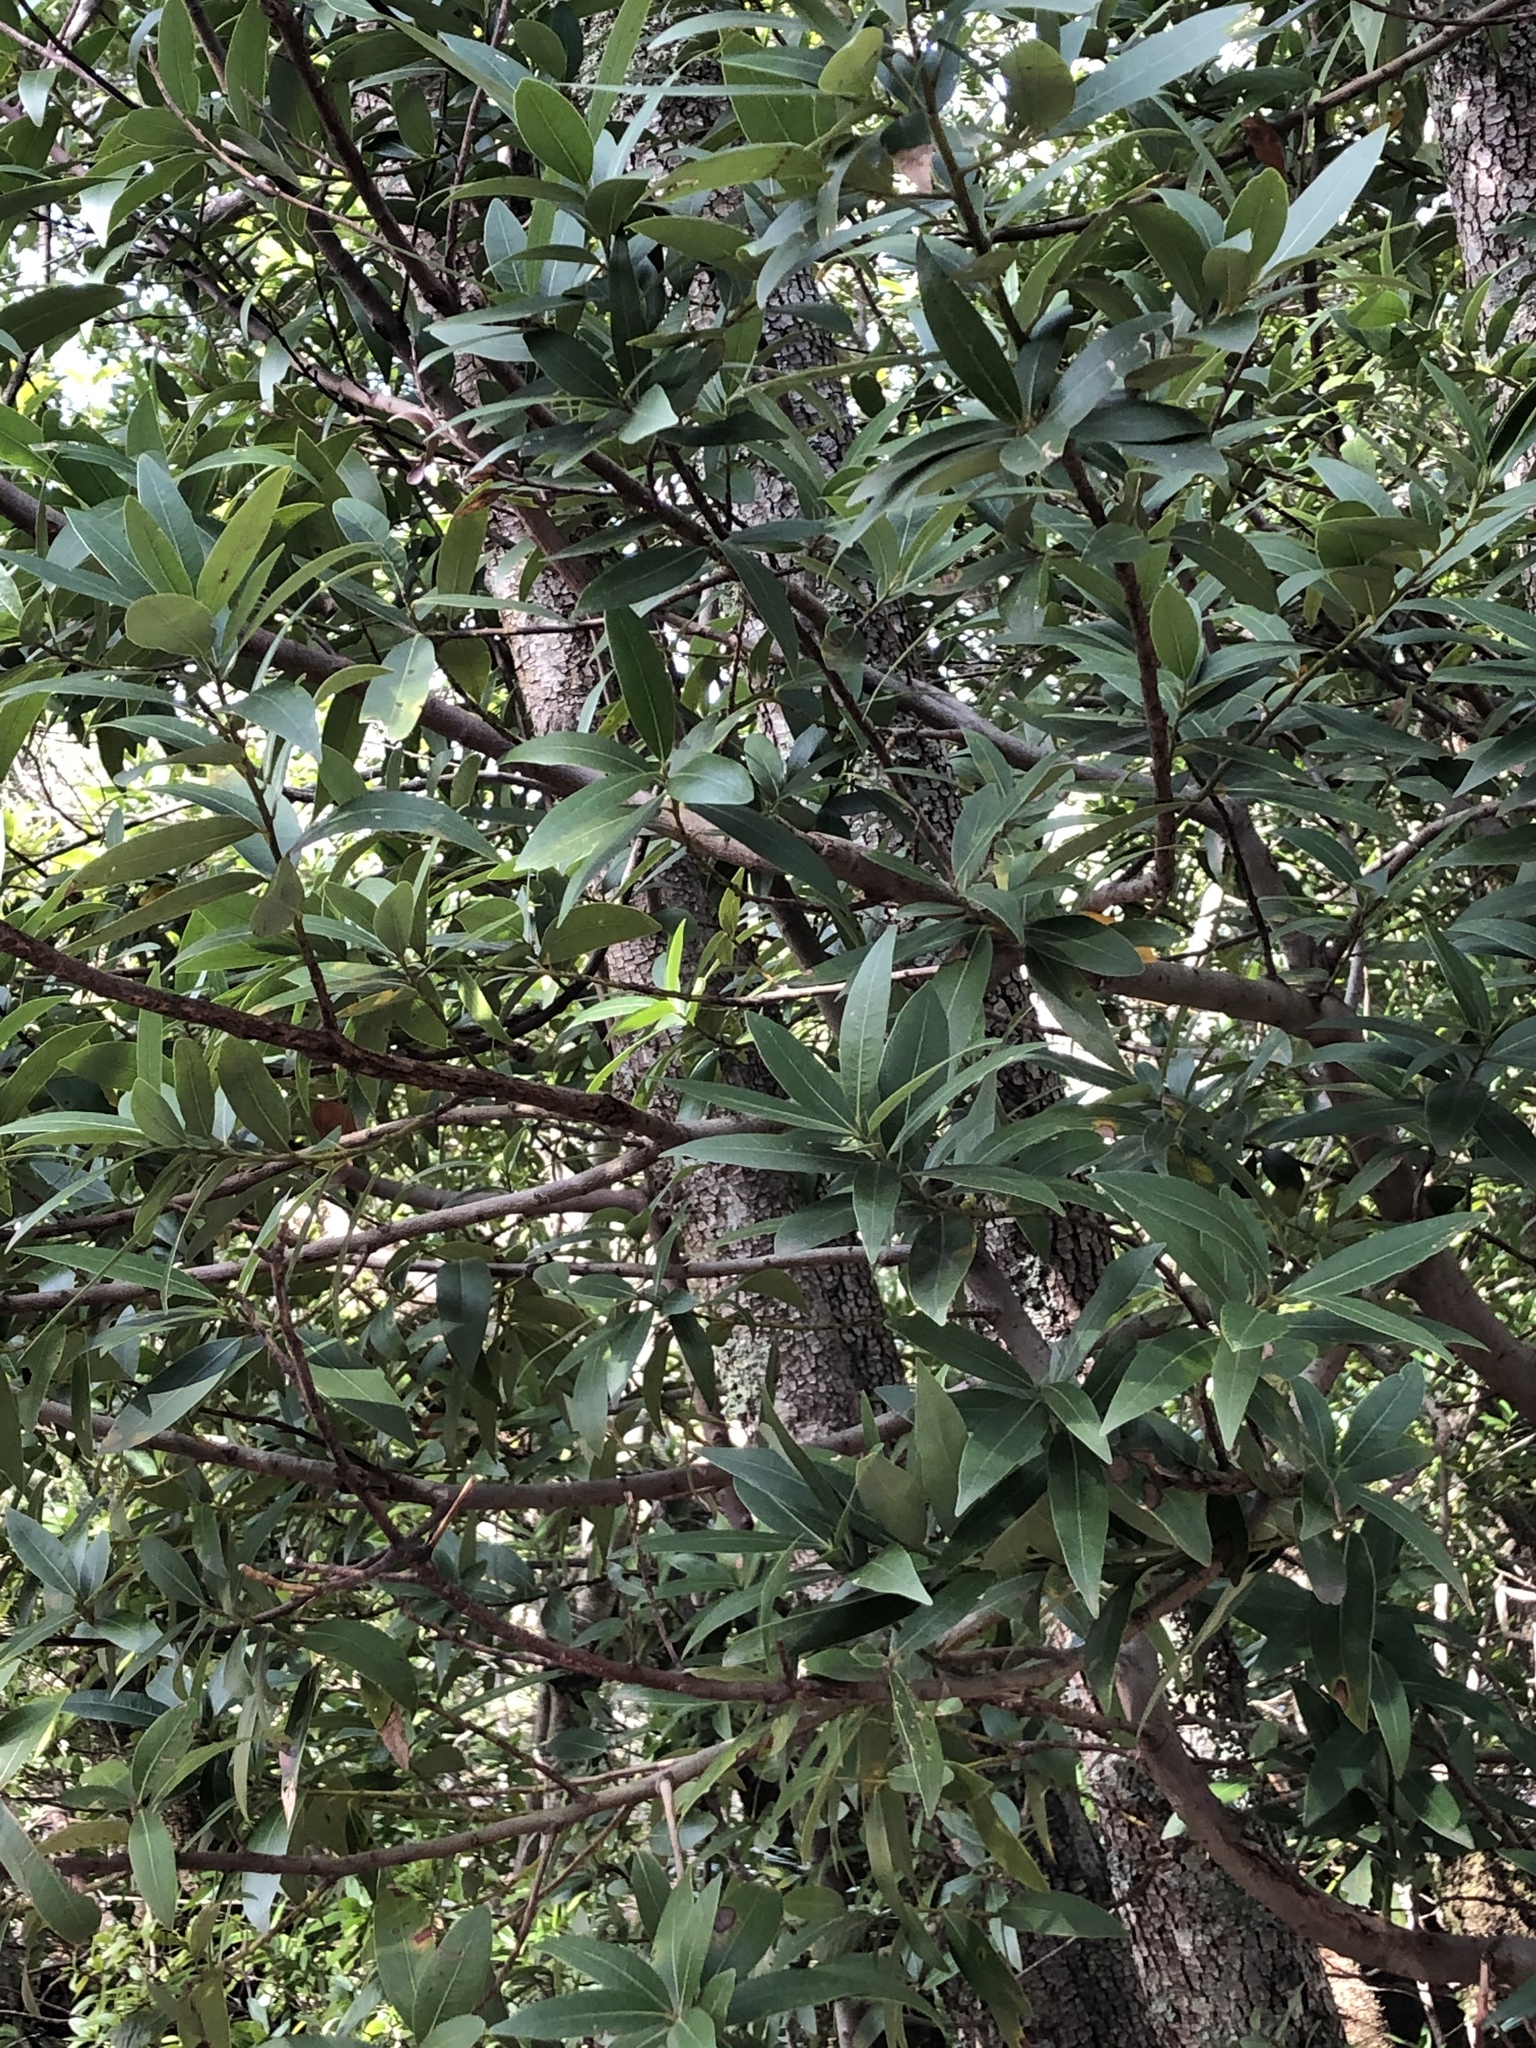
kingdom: Plantae
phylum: Tracheophyta
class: Magnoliopsida
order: Laurales
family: Lauraceae
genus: Umbellularia
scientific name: Umbellularia californica
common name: California bay
